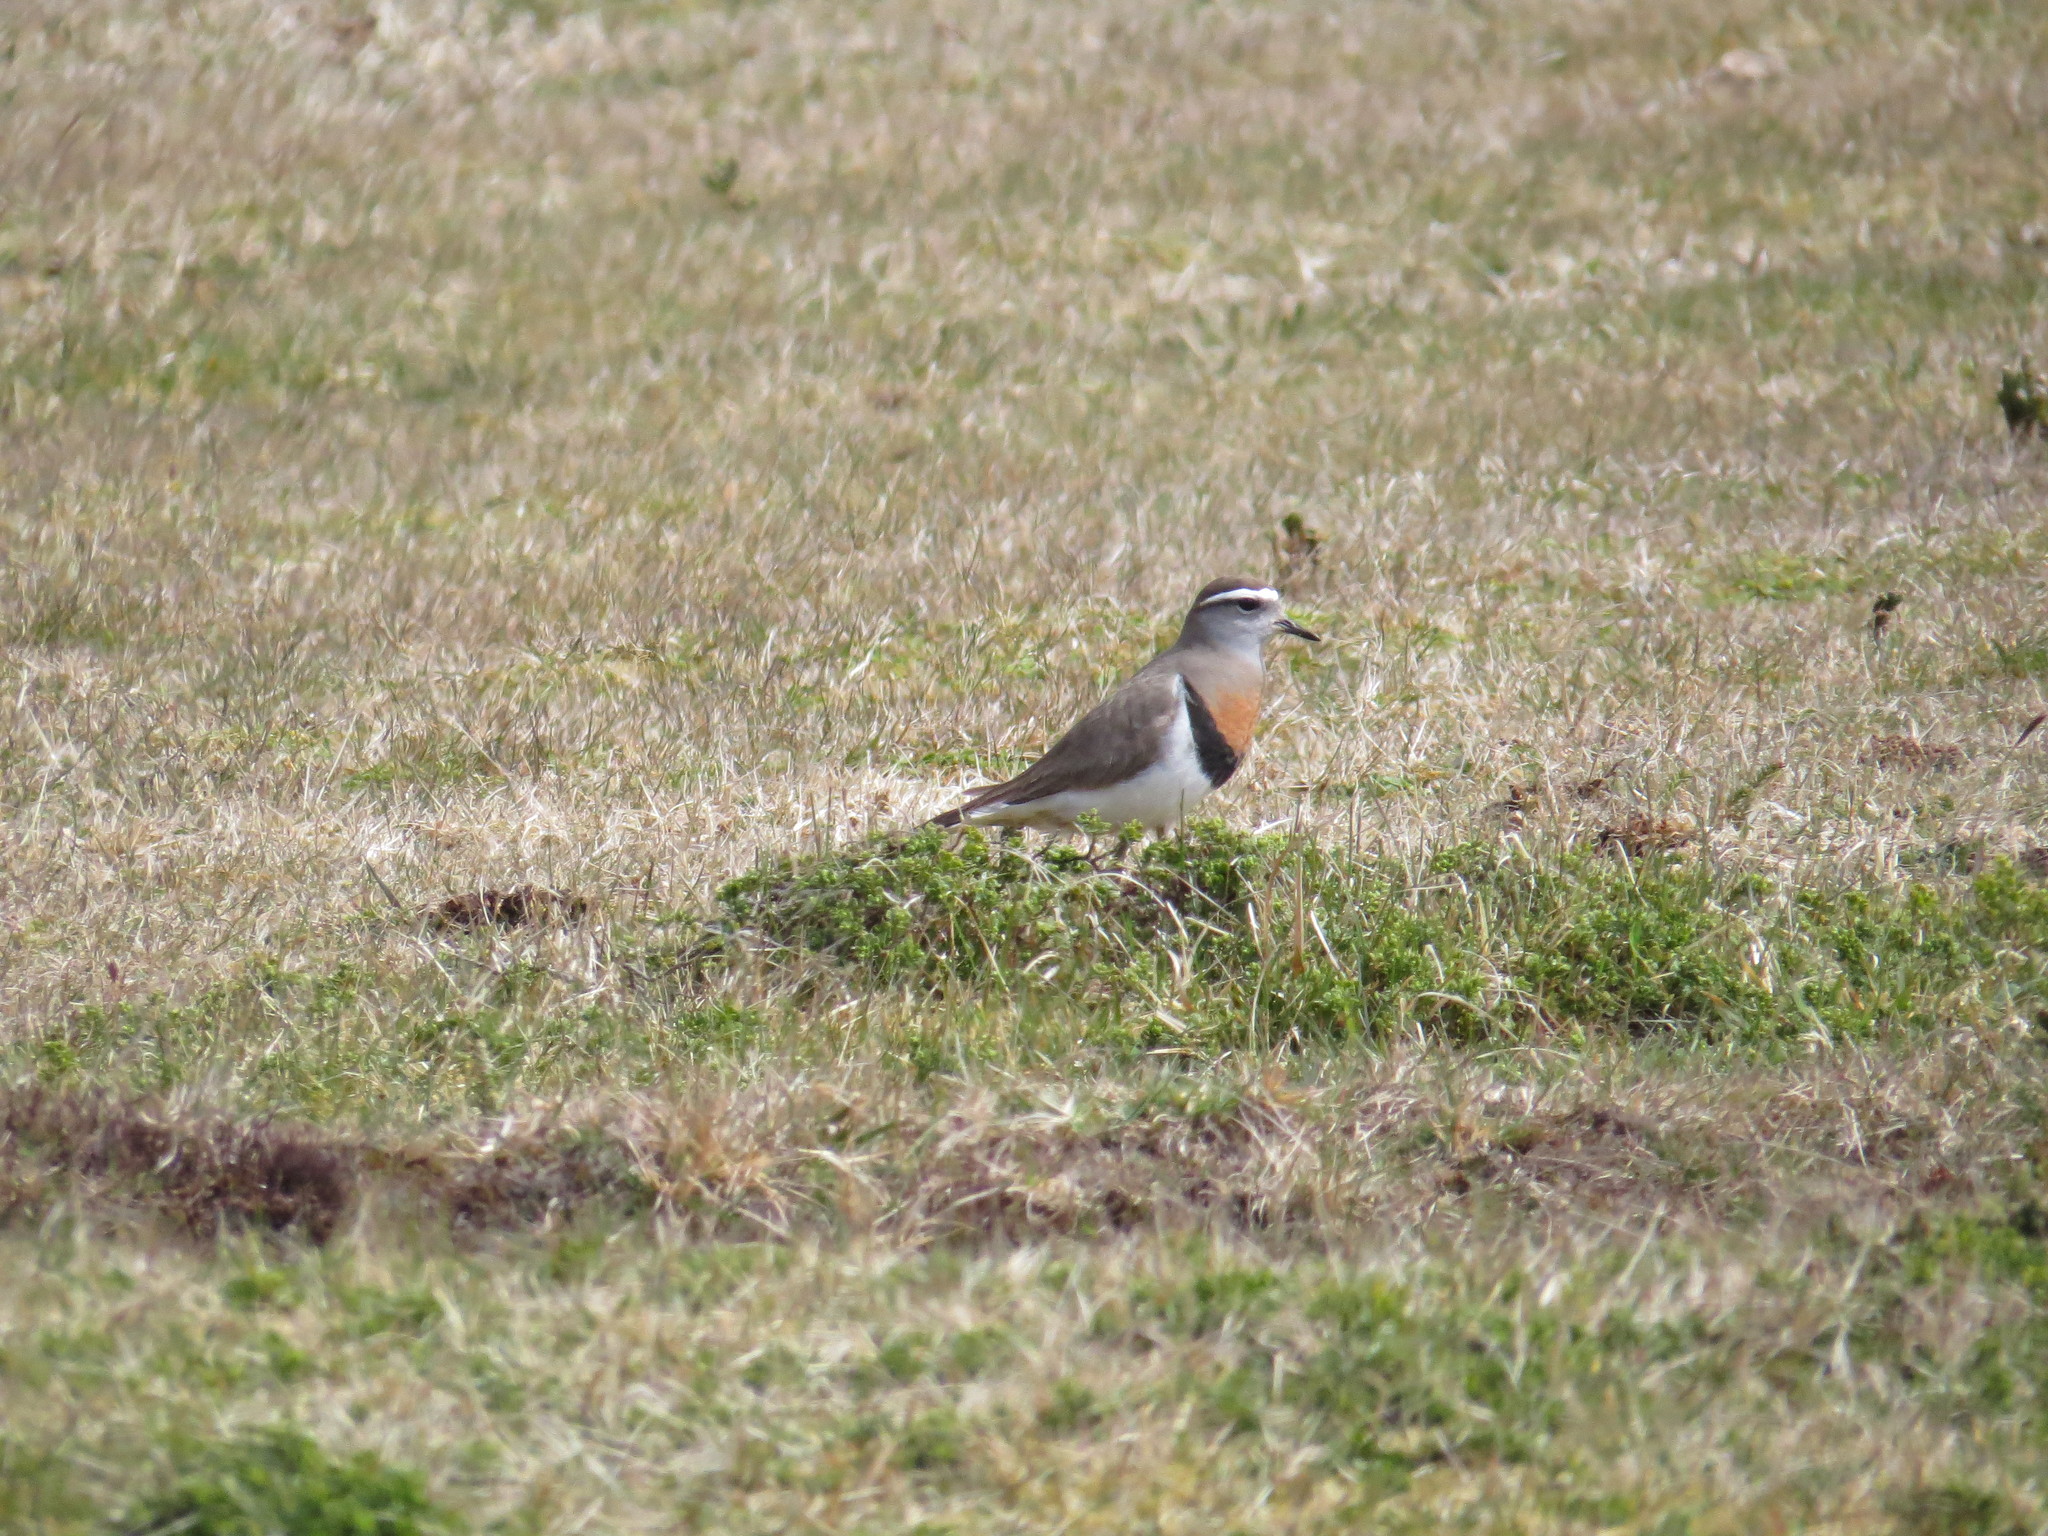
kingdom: Animalia
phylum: Chordata
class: Aves
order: Charadriiformes
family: Charadriidae
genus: Charadrius
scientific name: Charadrius modestus
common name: Rufous-chested plover
